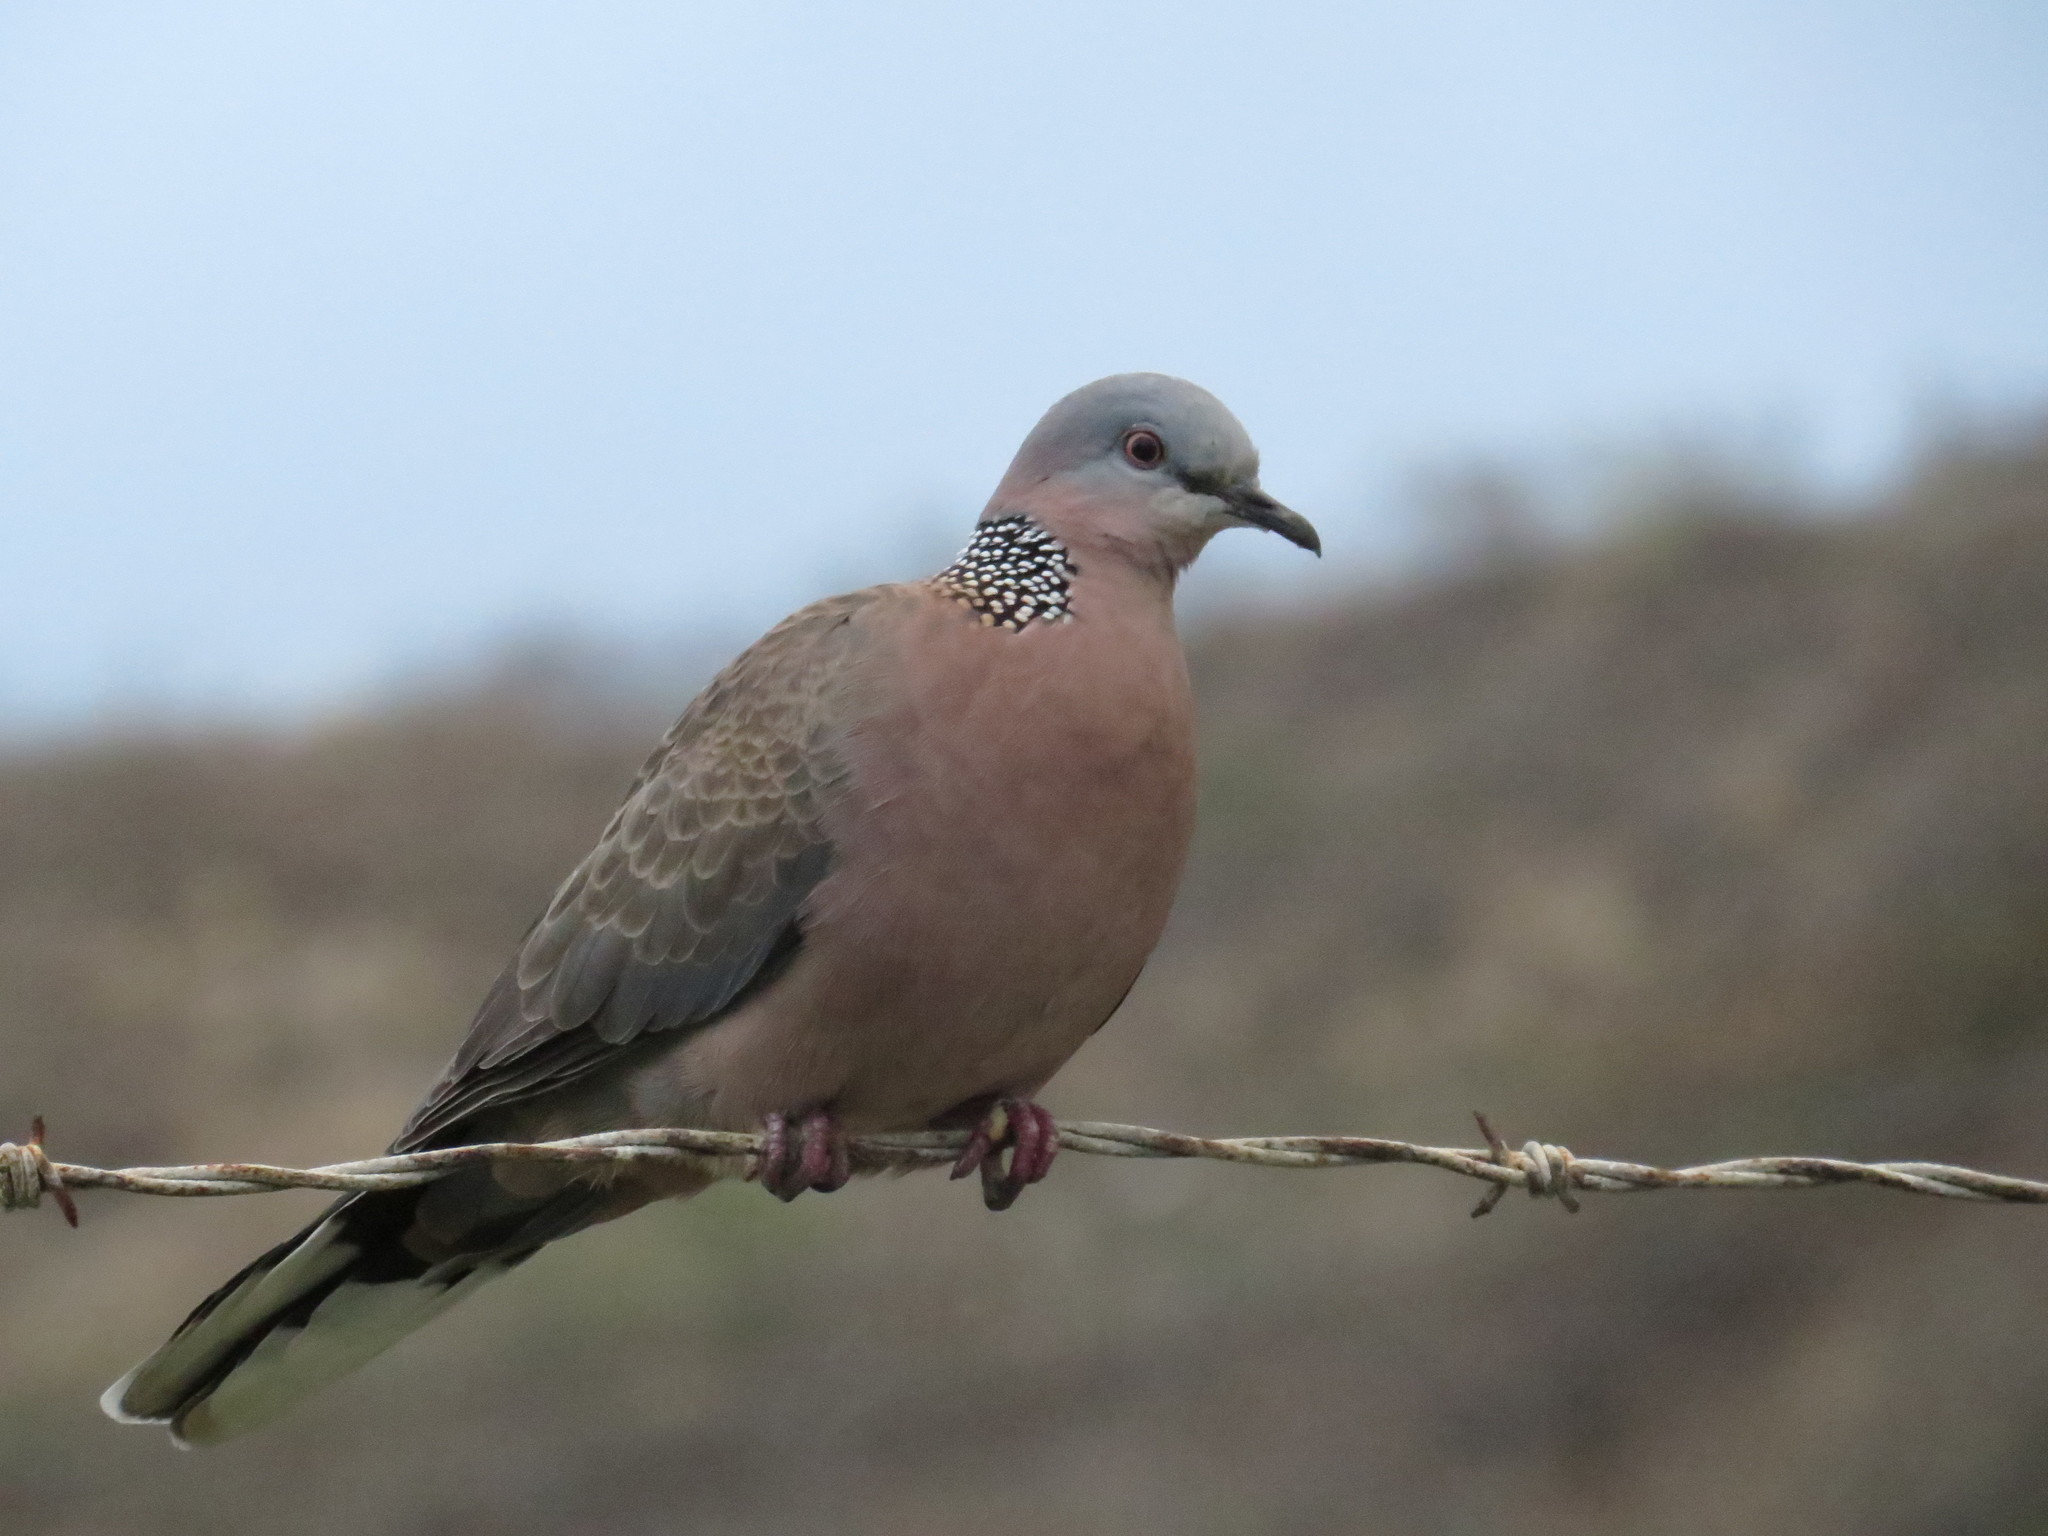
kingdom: Animalia
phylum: Chordata
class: Aves
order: Columbiformes
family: Columbidae
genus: Spilopelia
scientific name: Spilopelia chinensis
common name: Spotted dove
